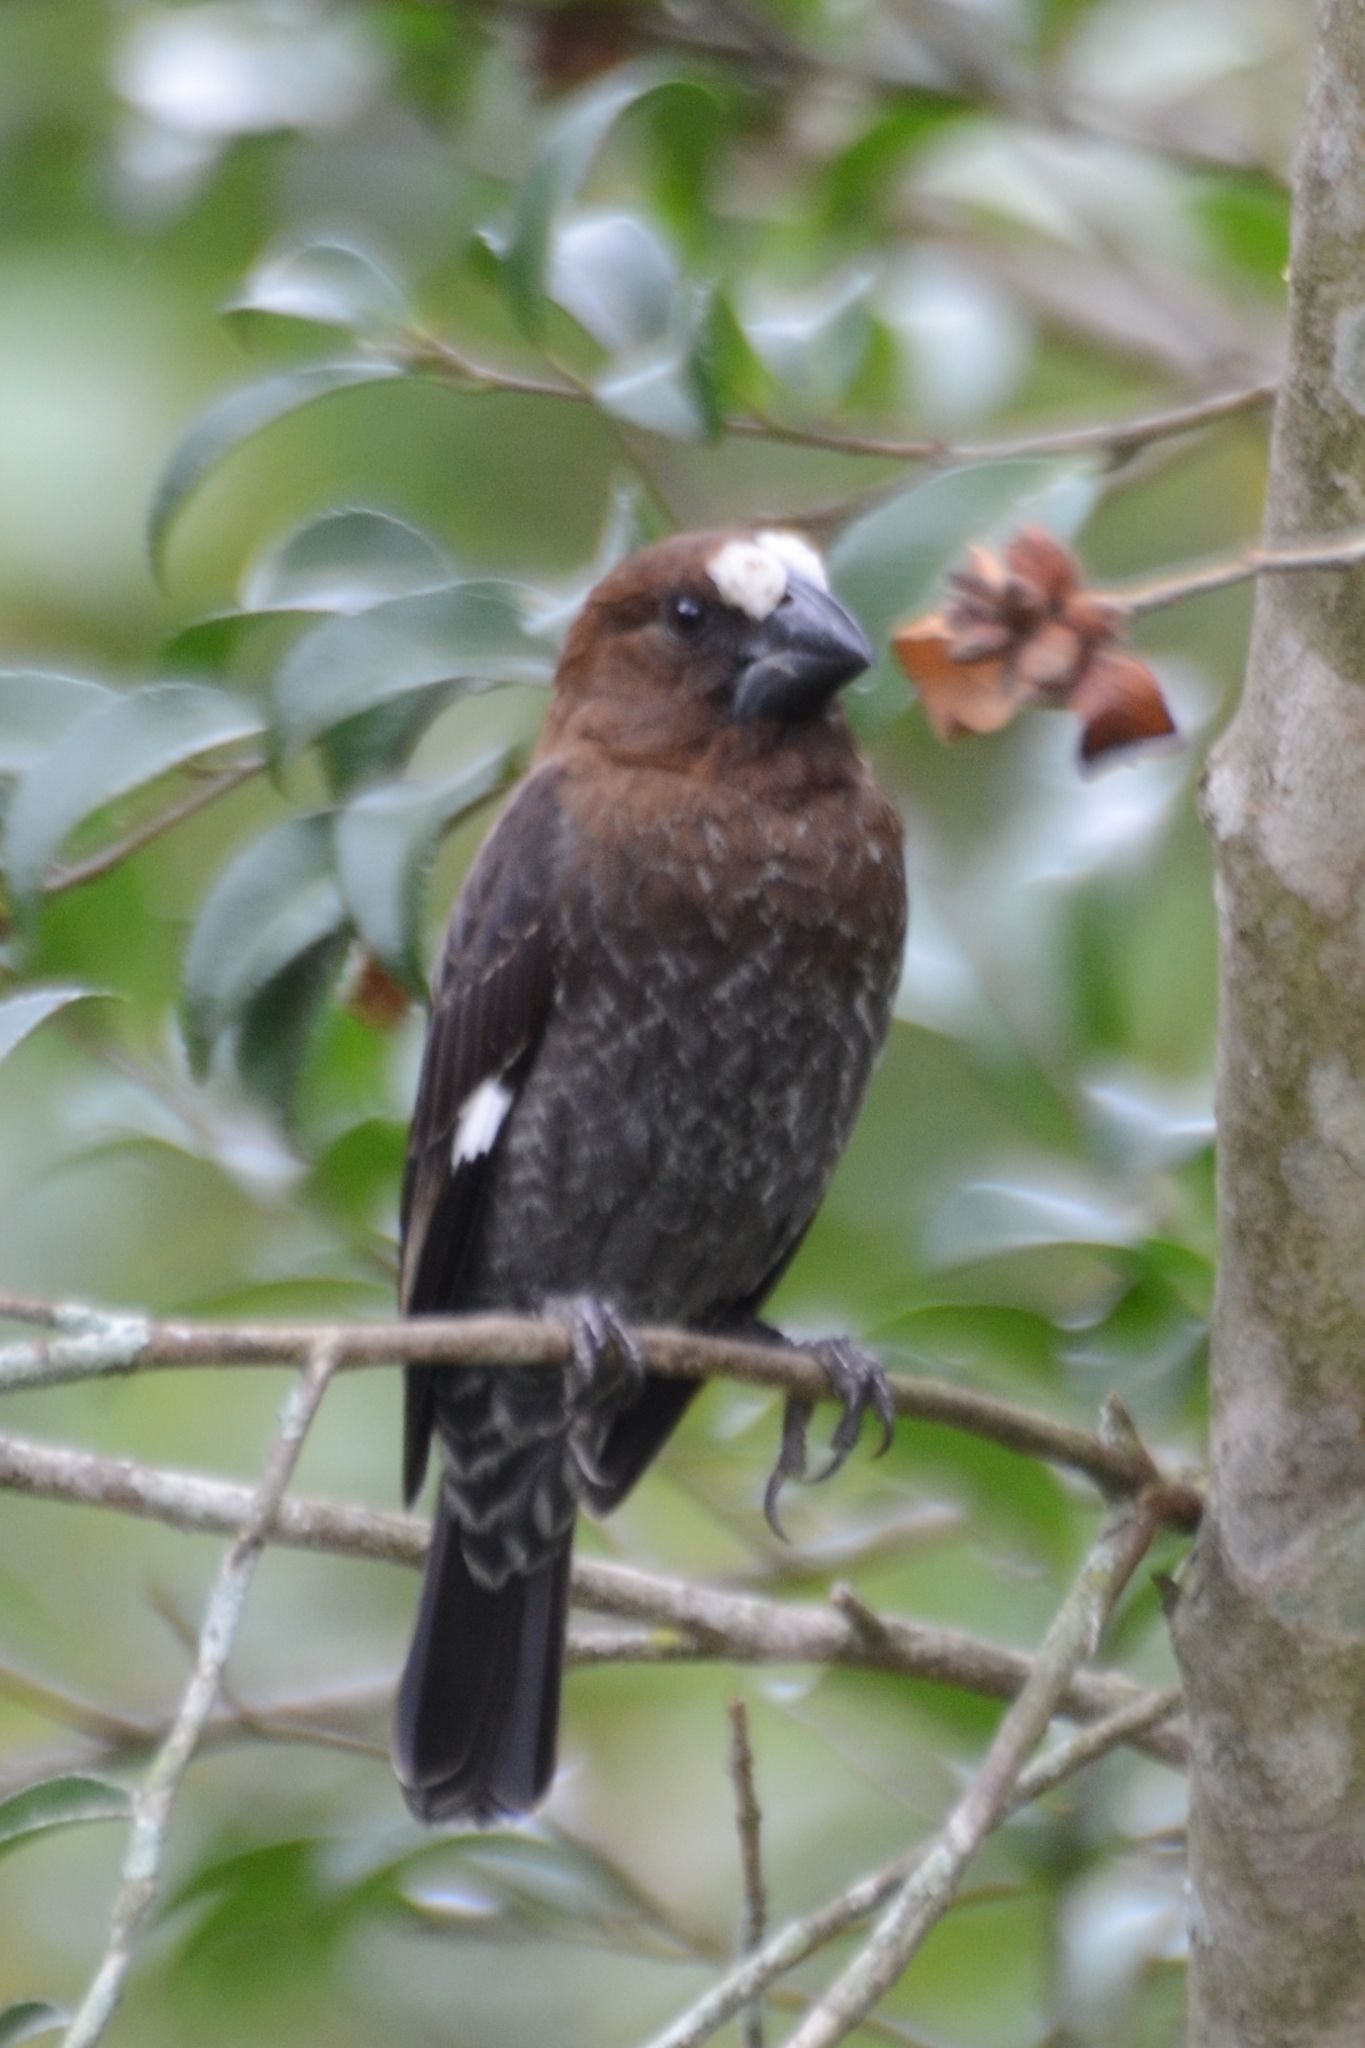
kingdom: Animalia
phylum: Chordata
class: Aves
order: Passeriformes
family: Ploceidae
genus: Amblyospiza
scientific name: Amblyospiza albifrons
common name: Thick-billed weaver
